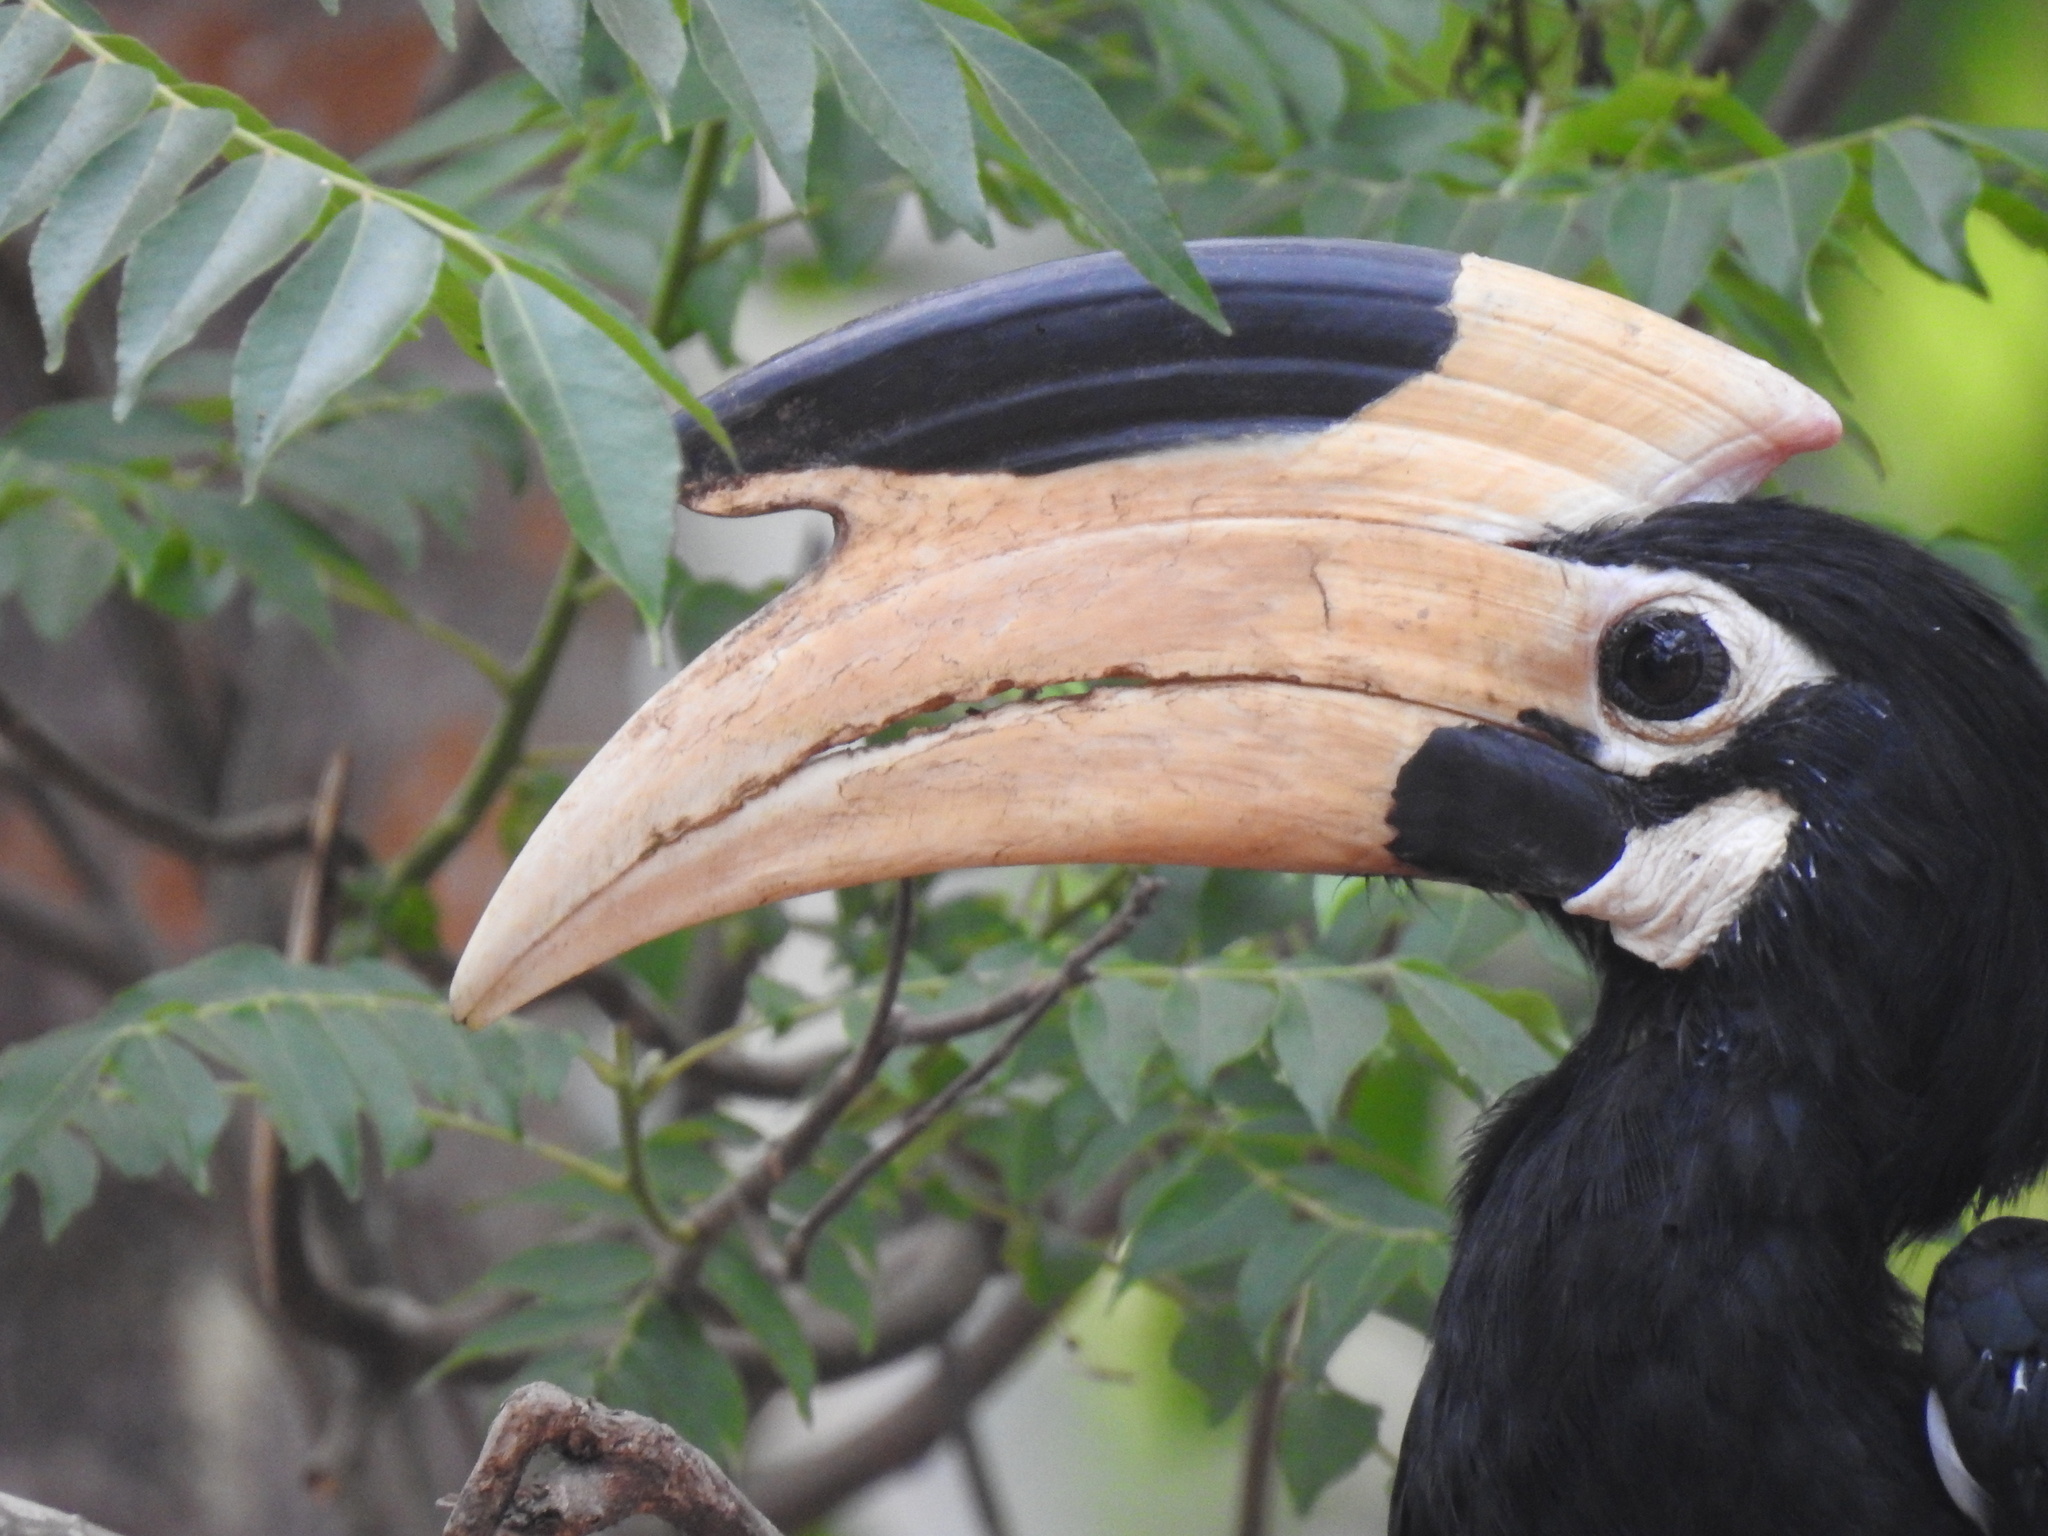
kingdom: Animalia
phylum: Chordata
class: Aves
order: Bucerotiformes
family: Bucerotidae
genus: Anthracoceros
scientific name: Anthracoceros coronatus
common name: Malabar pied hornbill
